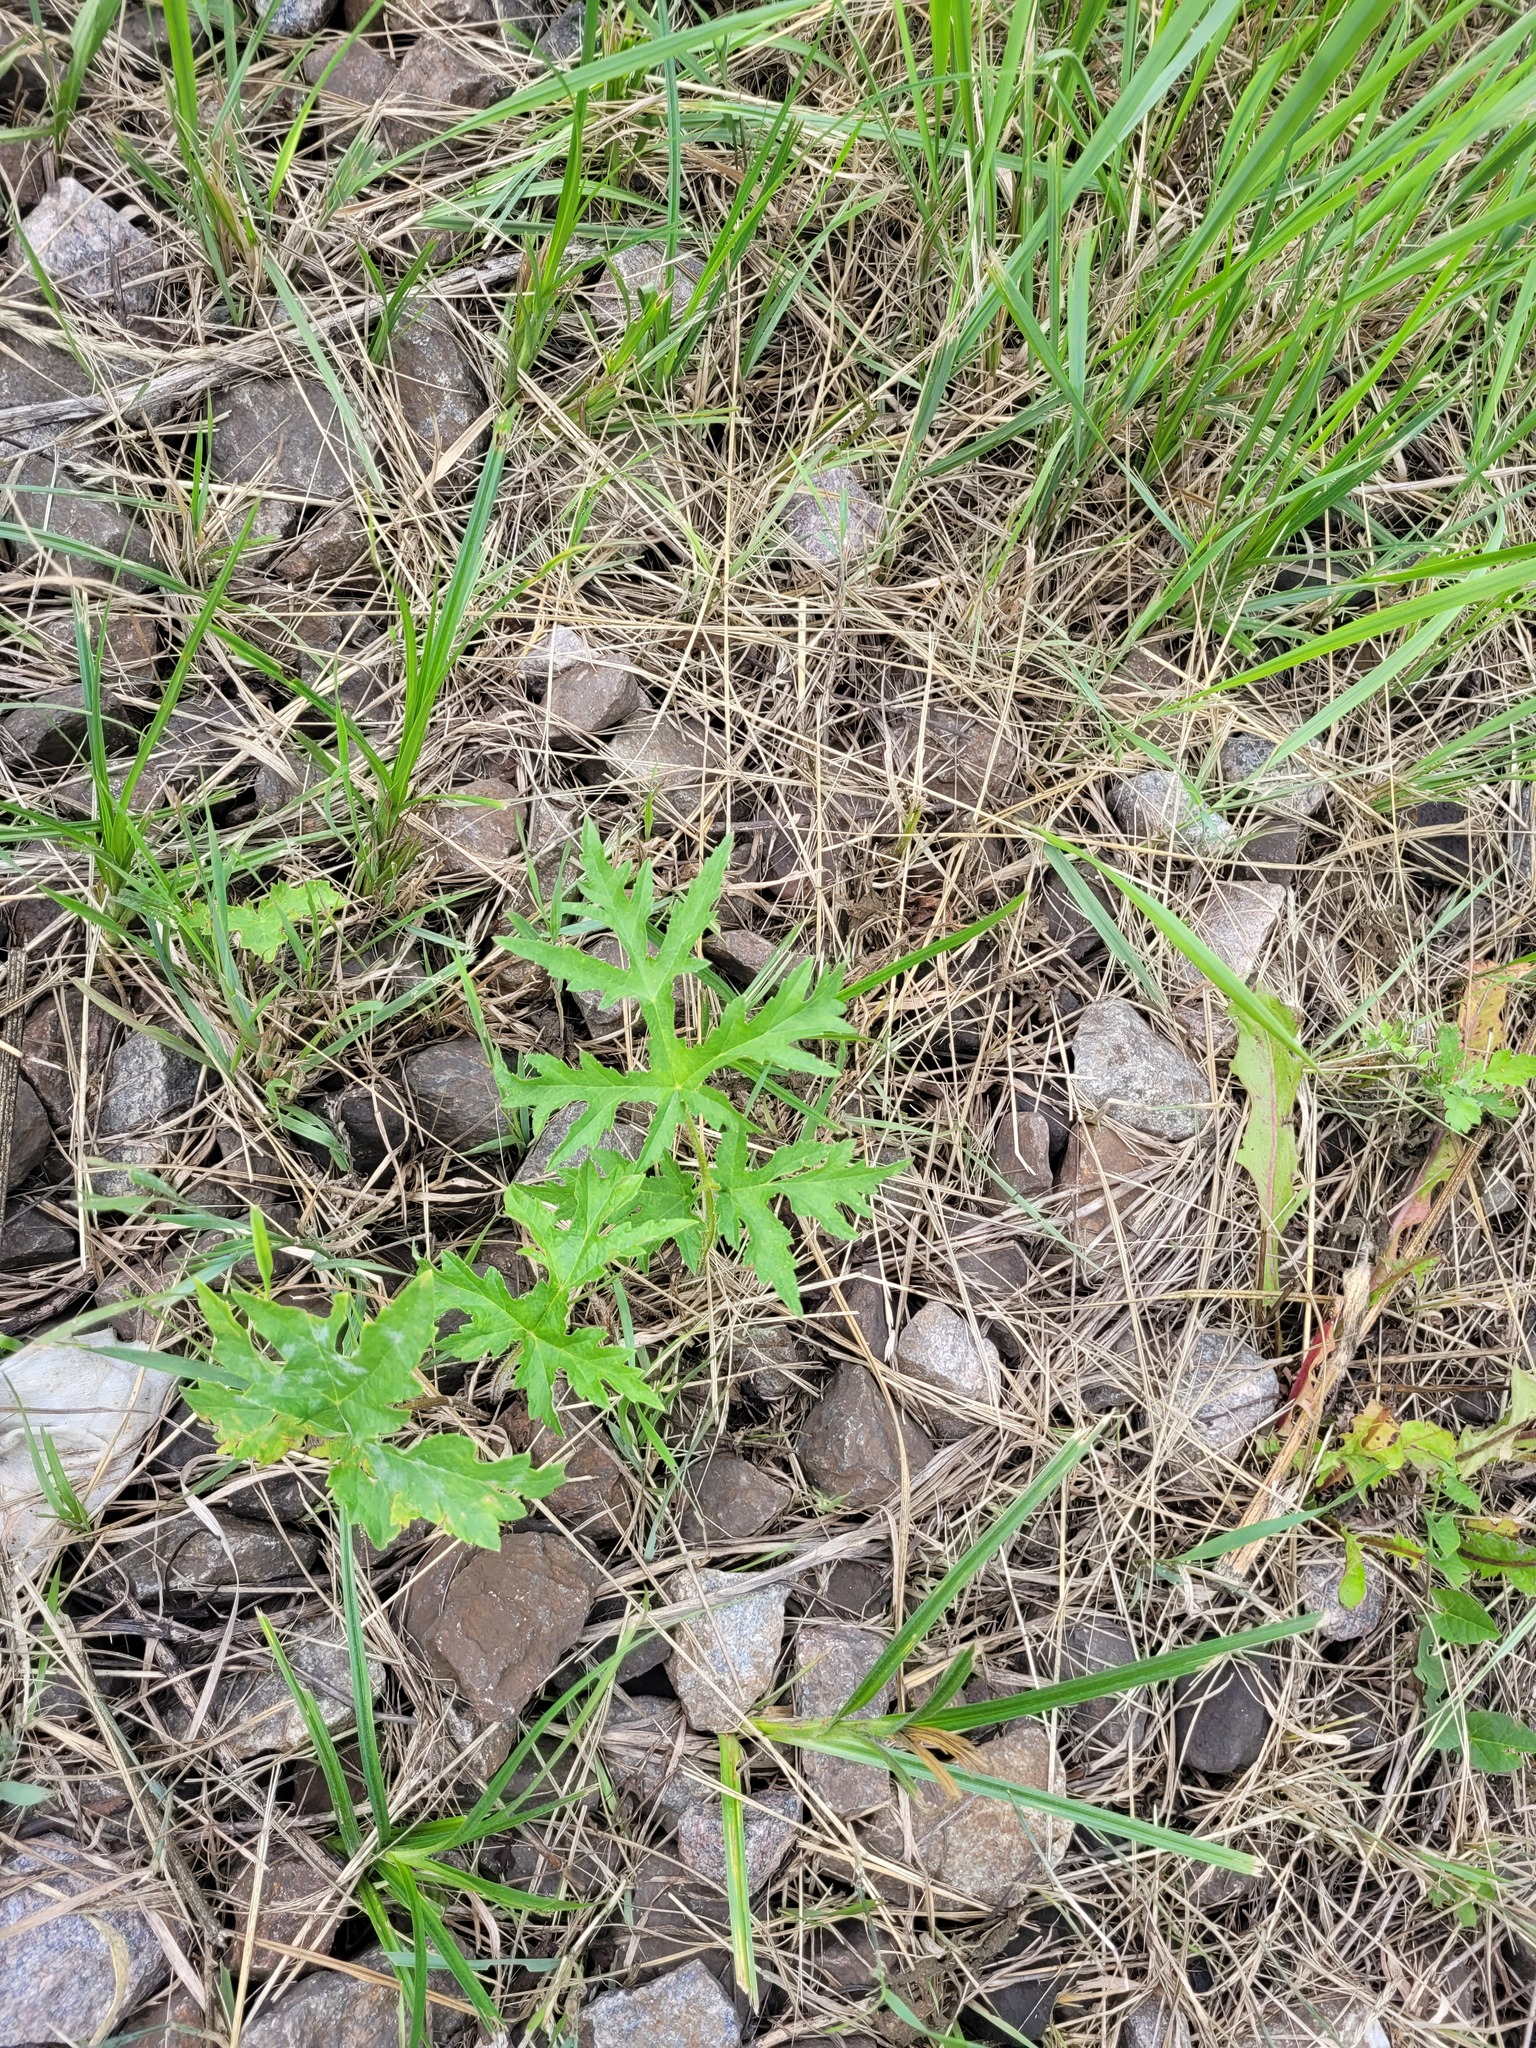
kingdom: Plantae
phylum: Tracheophyta
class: Magnoliopsida
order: Apiales
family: Apiaceae
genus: Heracleum
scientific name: Heracleum sphondylium
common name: Hogweed
